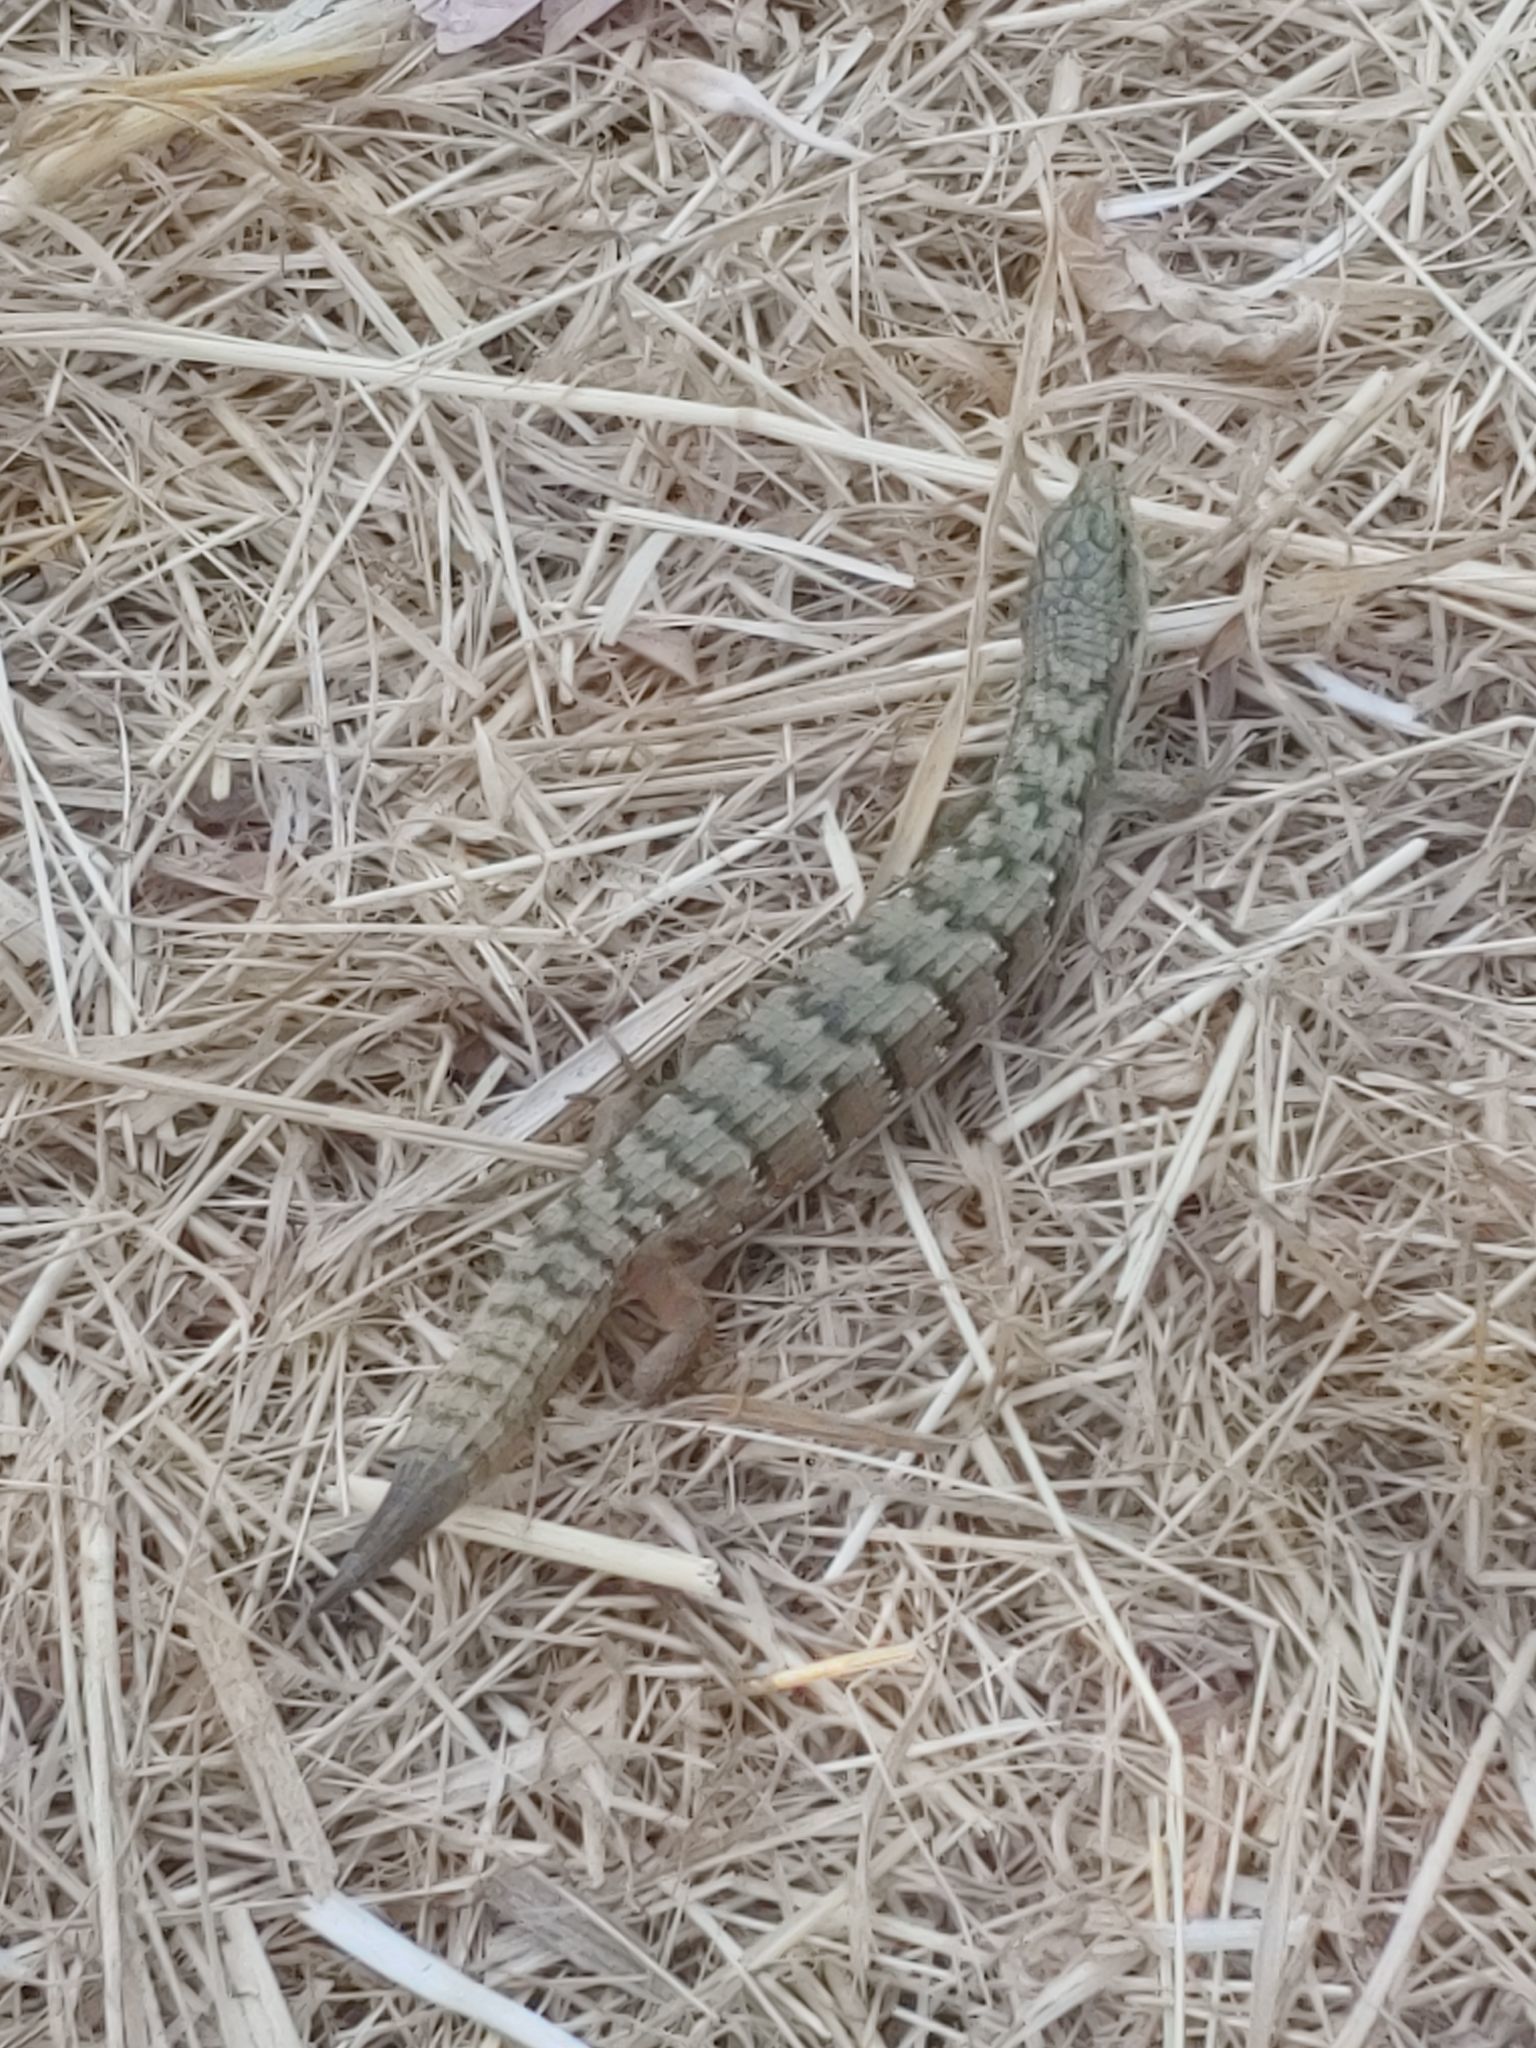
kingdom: Animalia
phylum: Chordata
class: Squamata
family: Anguidae
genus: Elgaria
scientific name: Elgaria multicarinata
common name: Southern alligator lizard
